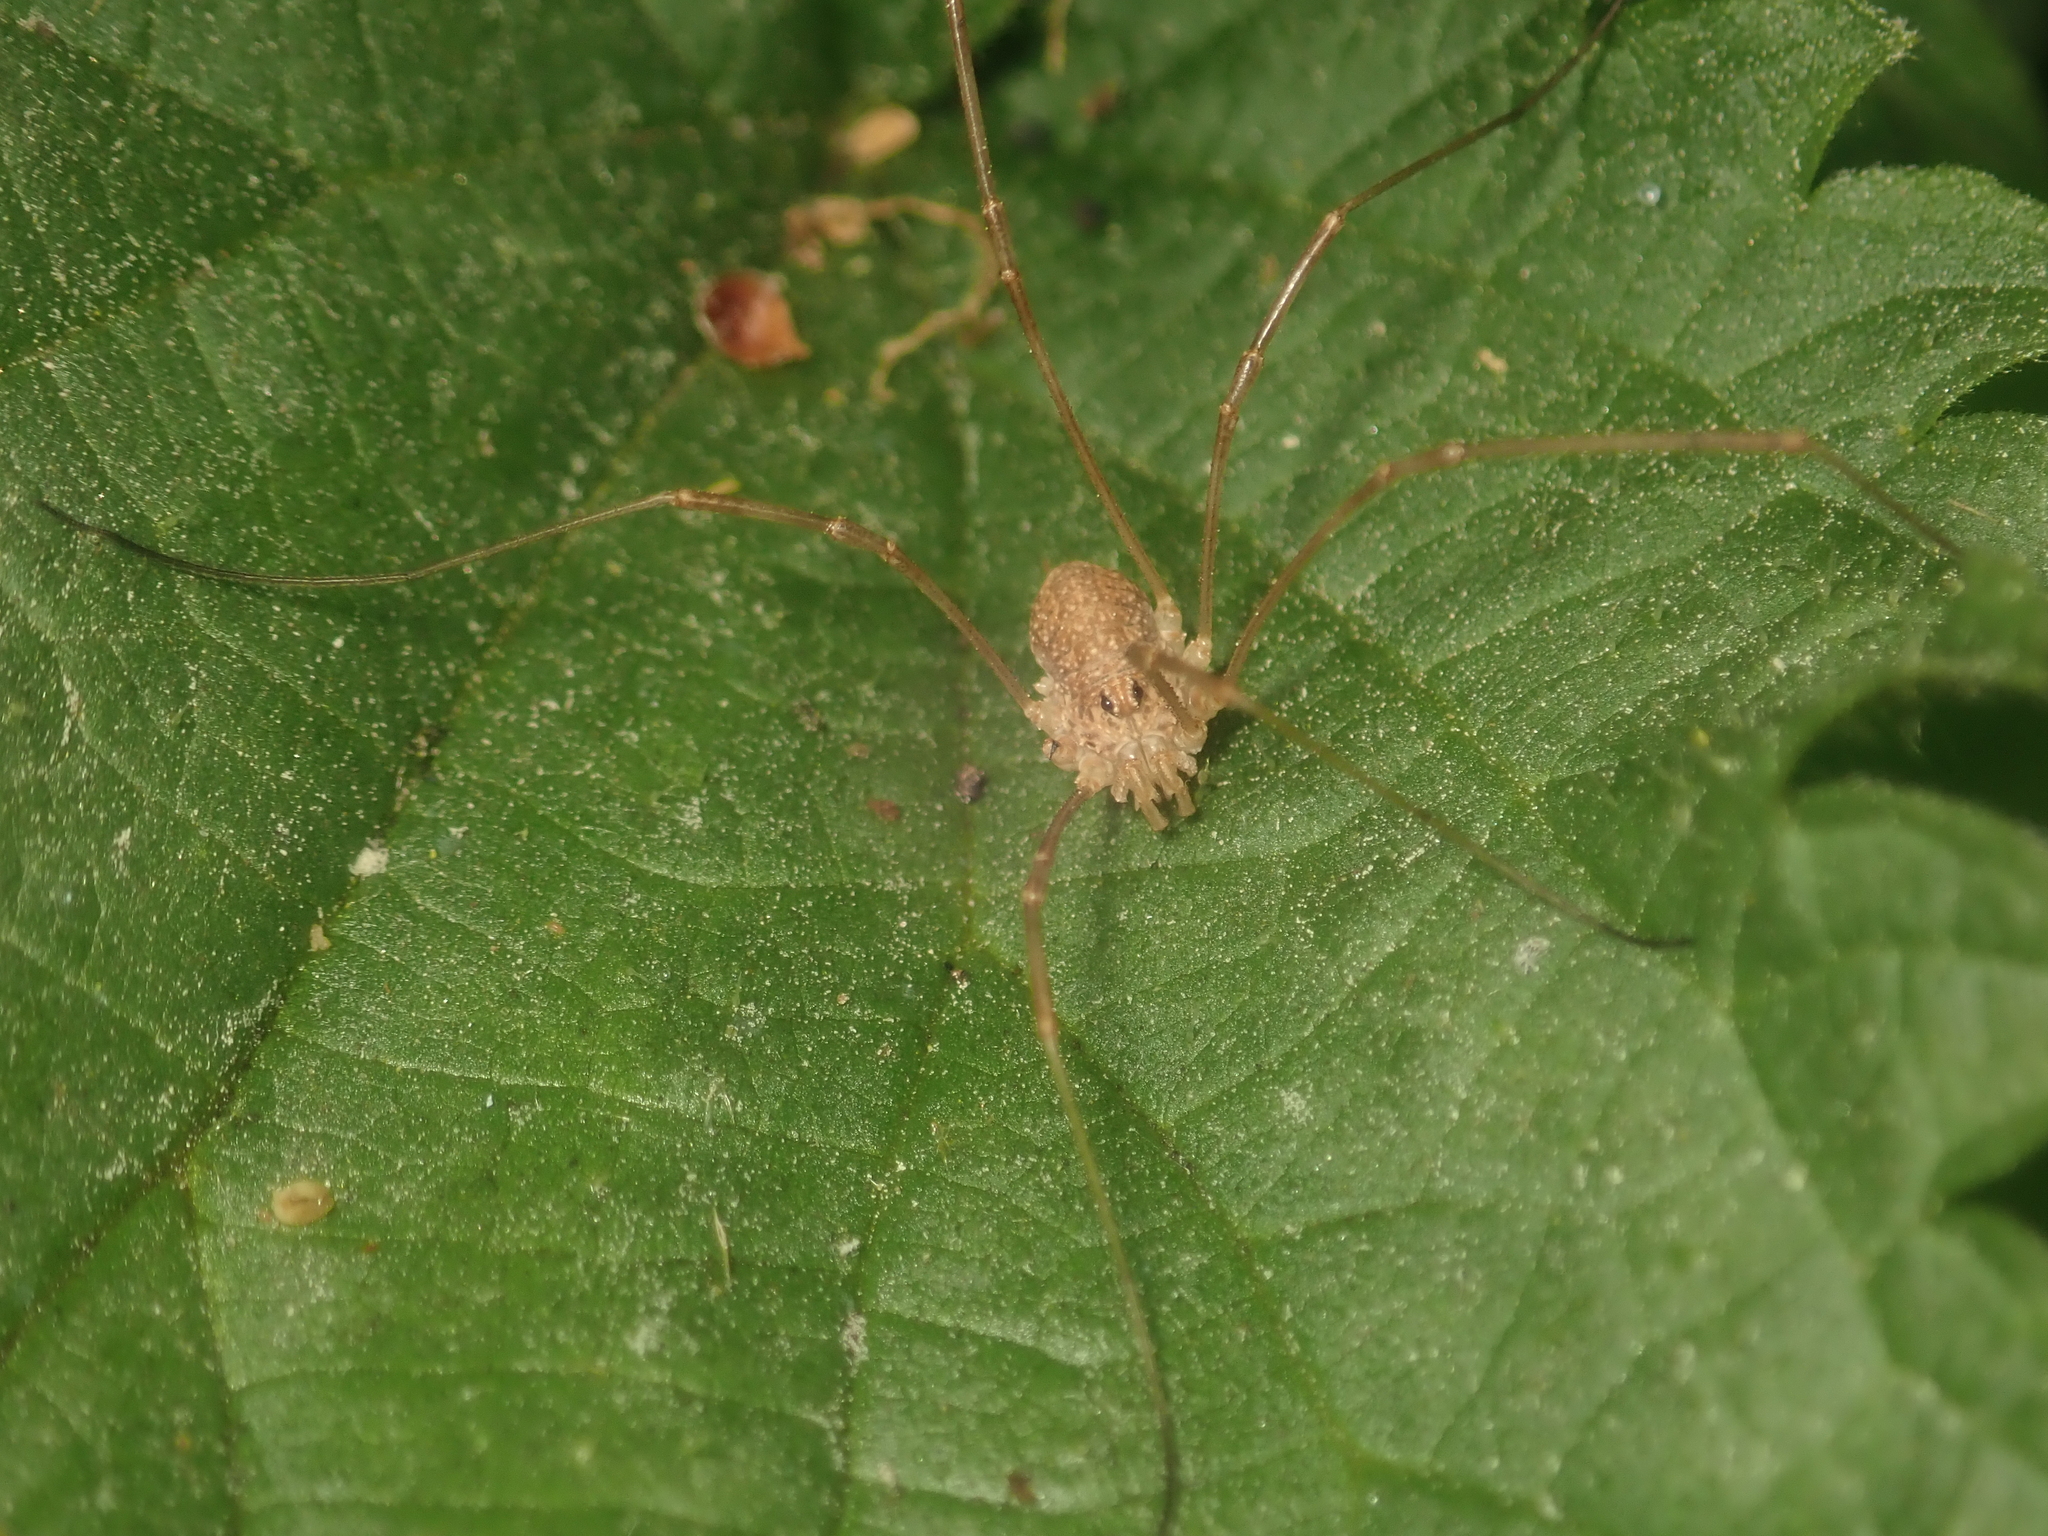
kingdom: Animalia
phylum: Arthropoda
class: Arachnida
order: Opiliones
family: Phalangiidae
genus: Rilaena
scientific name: Rilaena triangularis
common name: Spring harvestman
